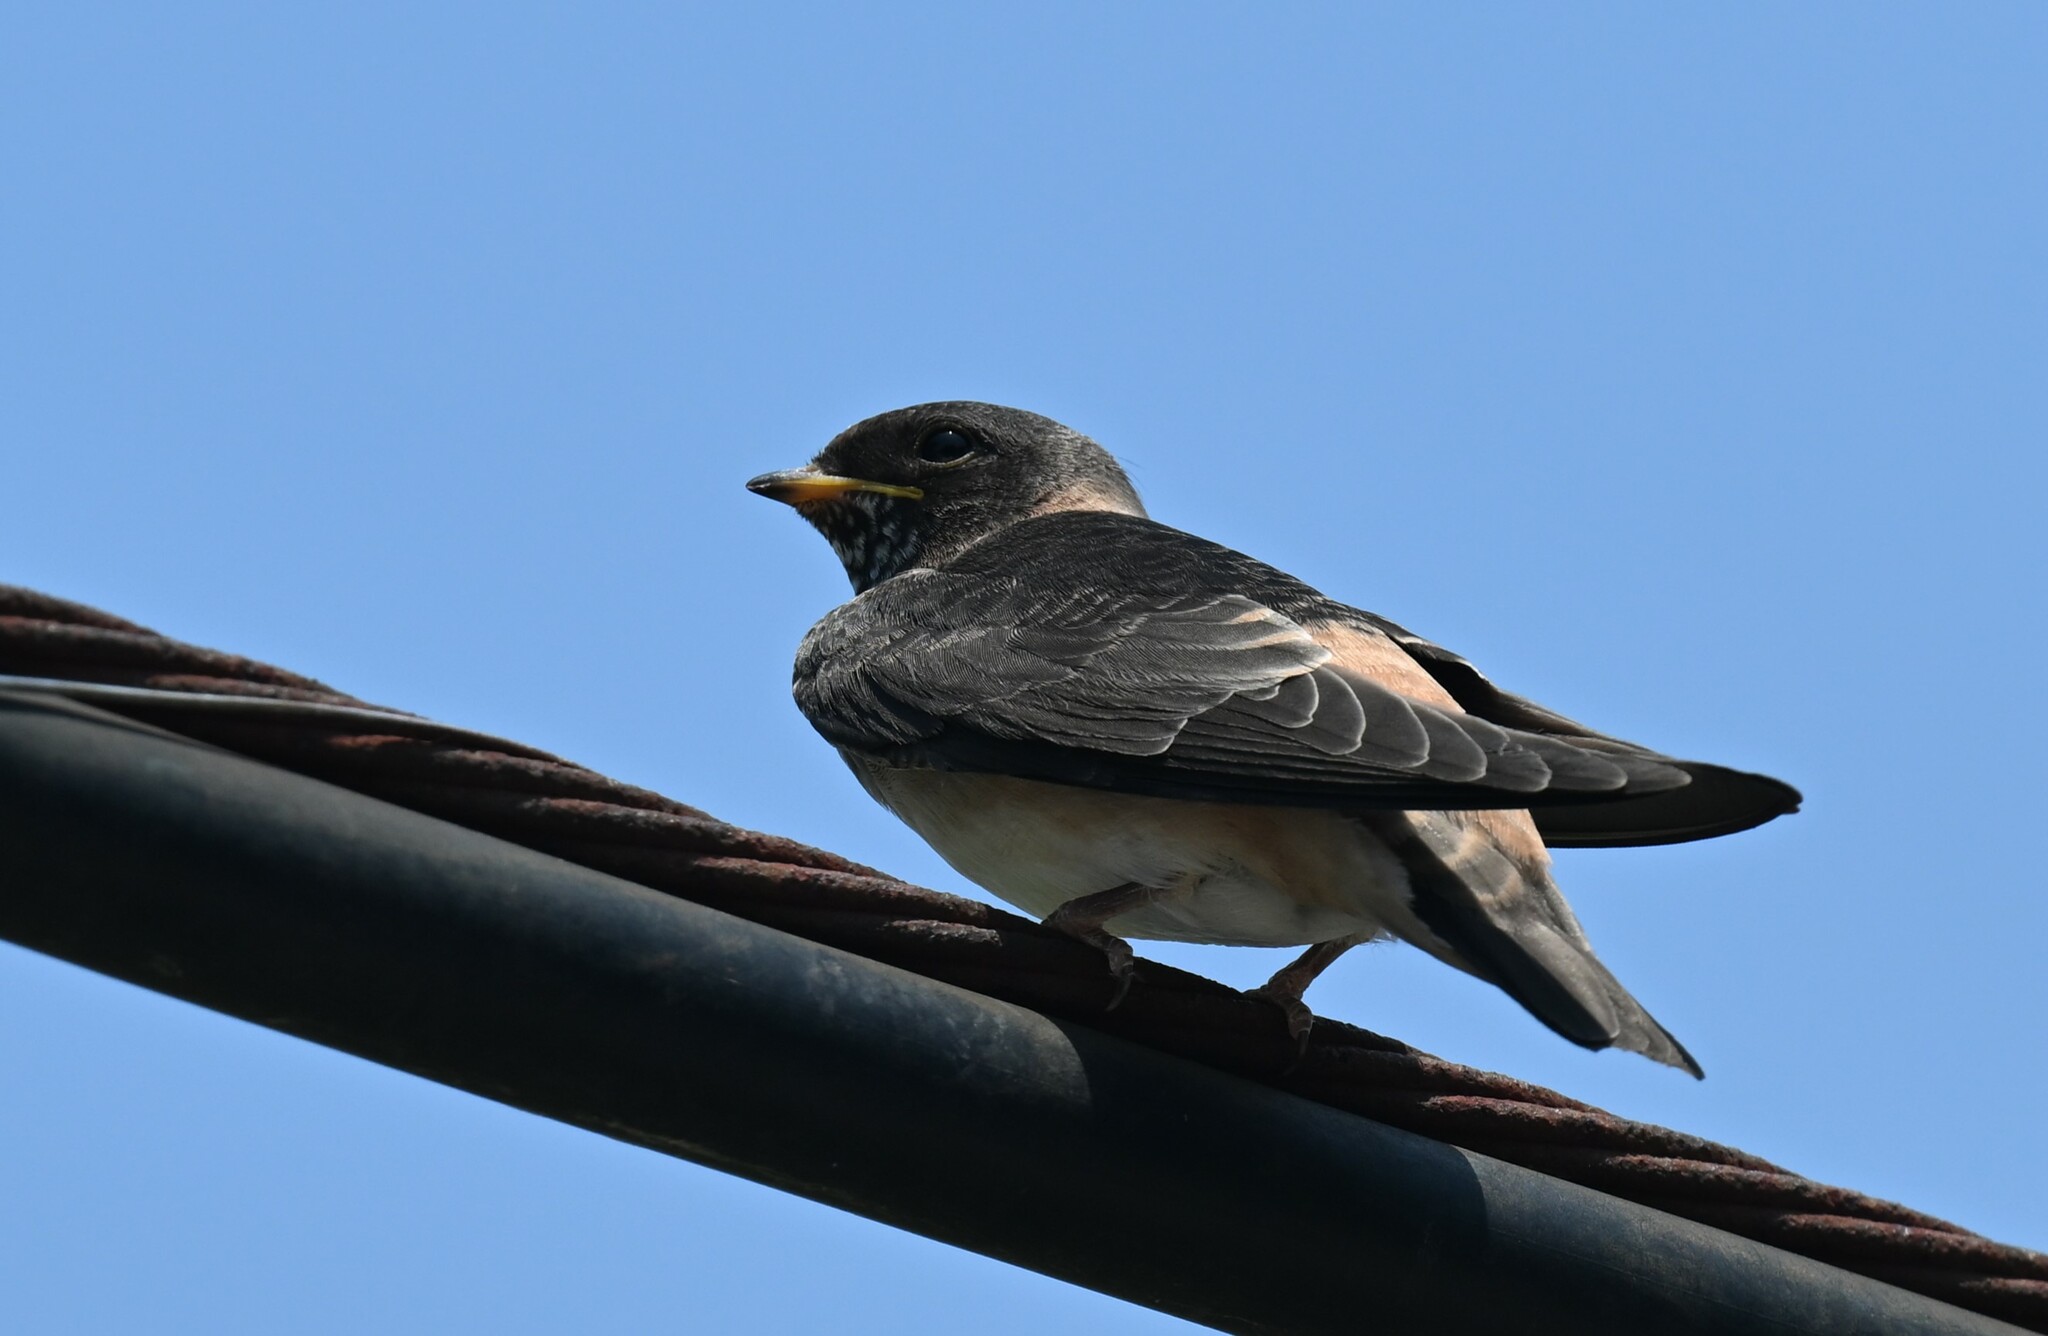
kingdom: Animalia
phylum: Chordata
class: Aves
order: Passeriformes
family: Hirundinidae
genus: Petrochelidon
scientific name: Petrochelidon pyrrhonota
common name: American cliff swallow
